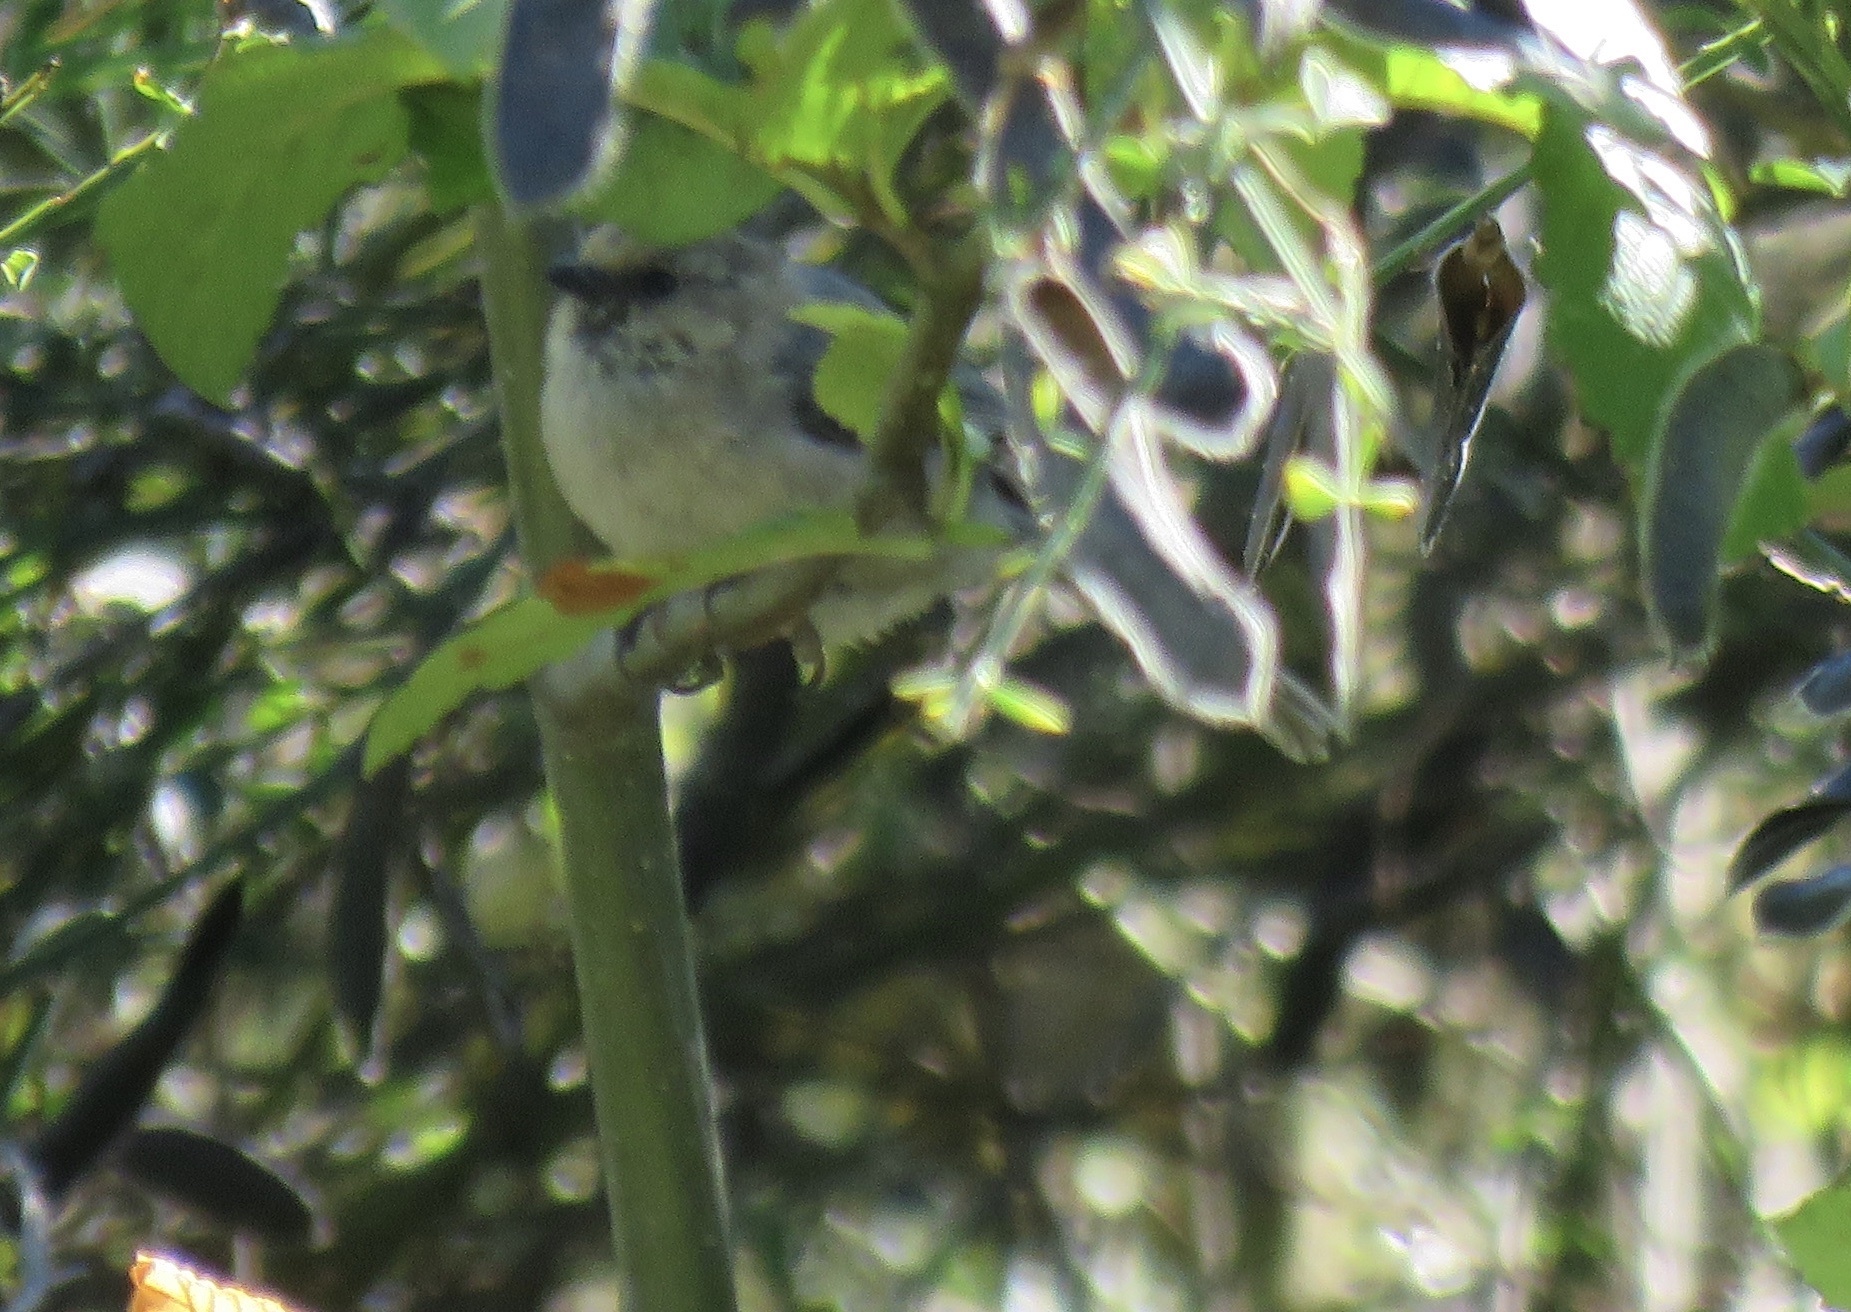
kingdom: Animalia
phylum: Chordata
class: Aves
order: Passeriformes
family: Aegithalidae
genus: Psaltriparus
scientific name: Psaltriparus minimus
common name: American bushtit
